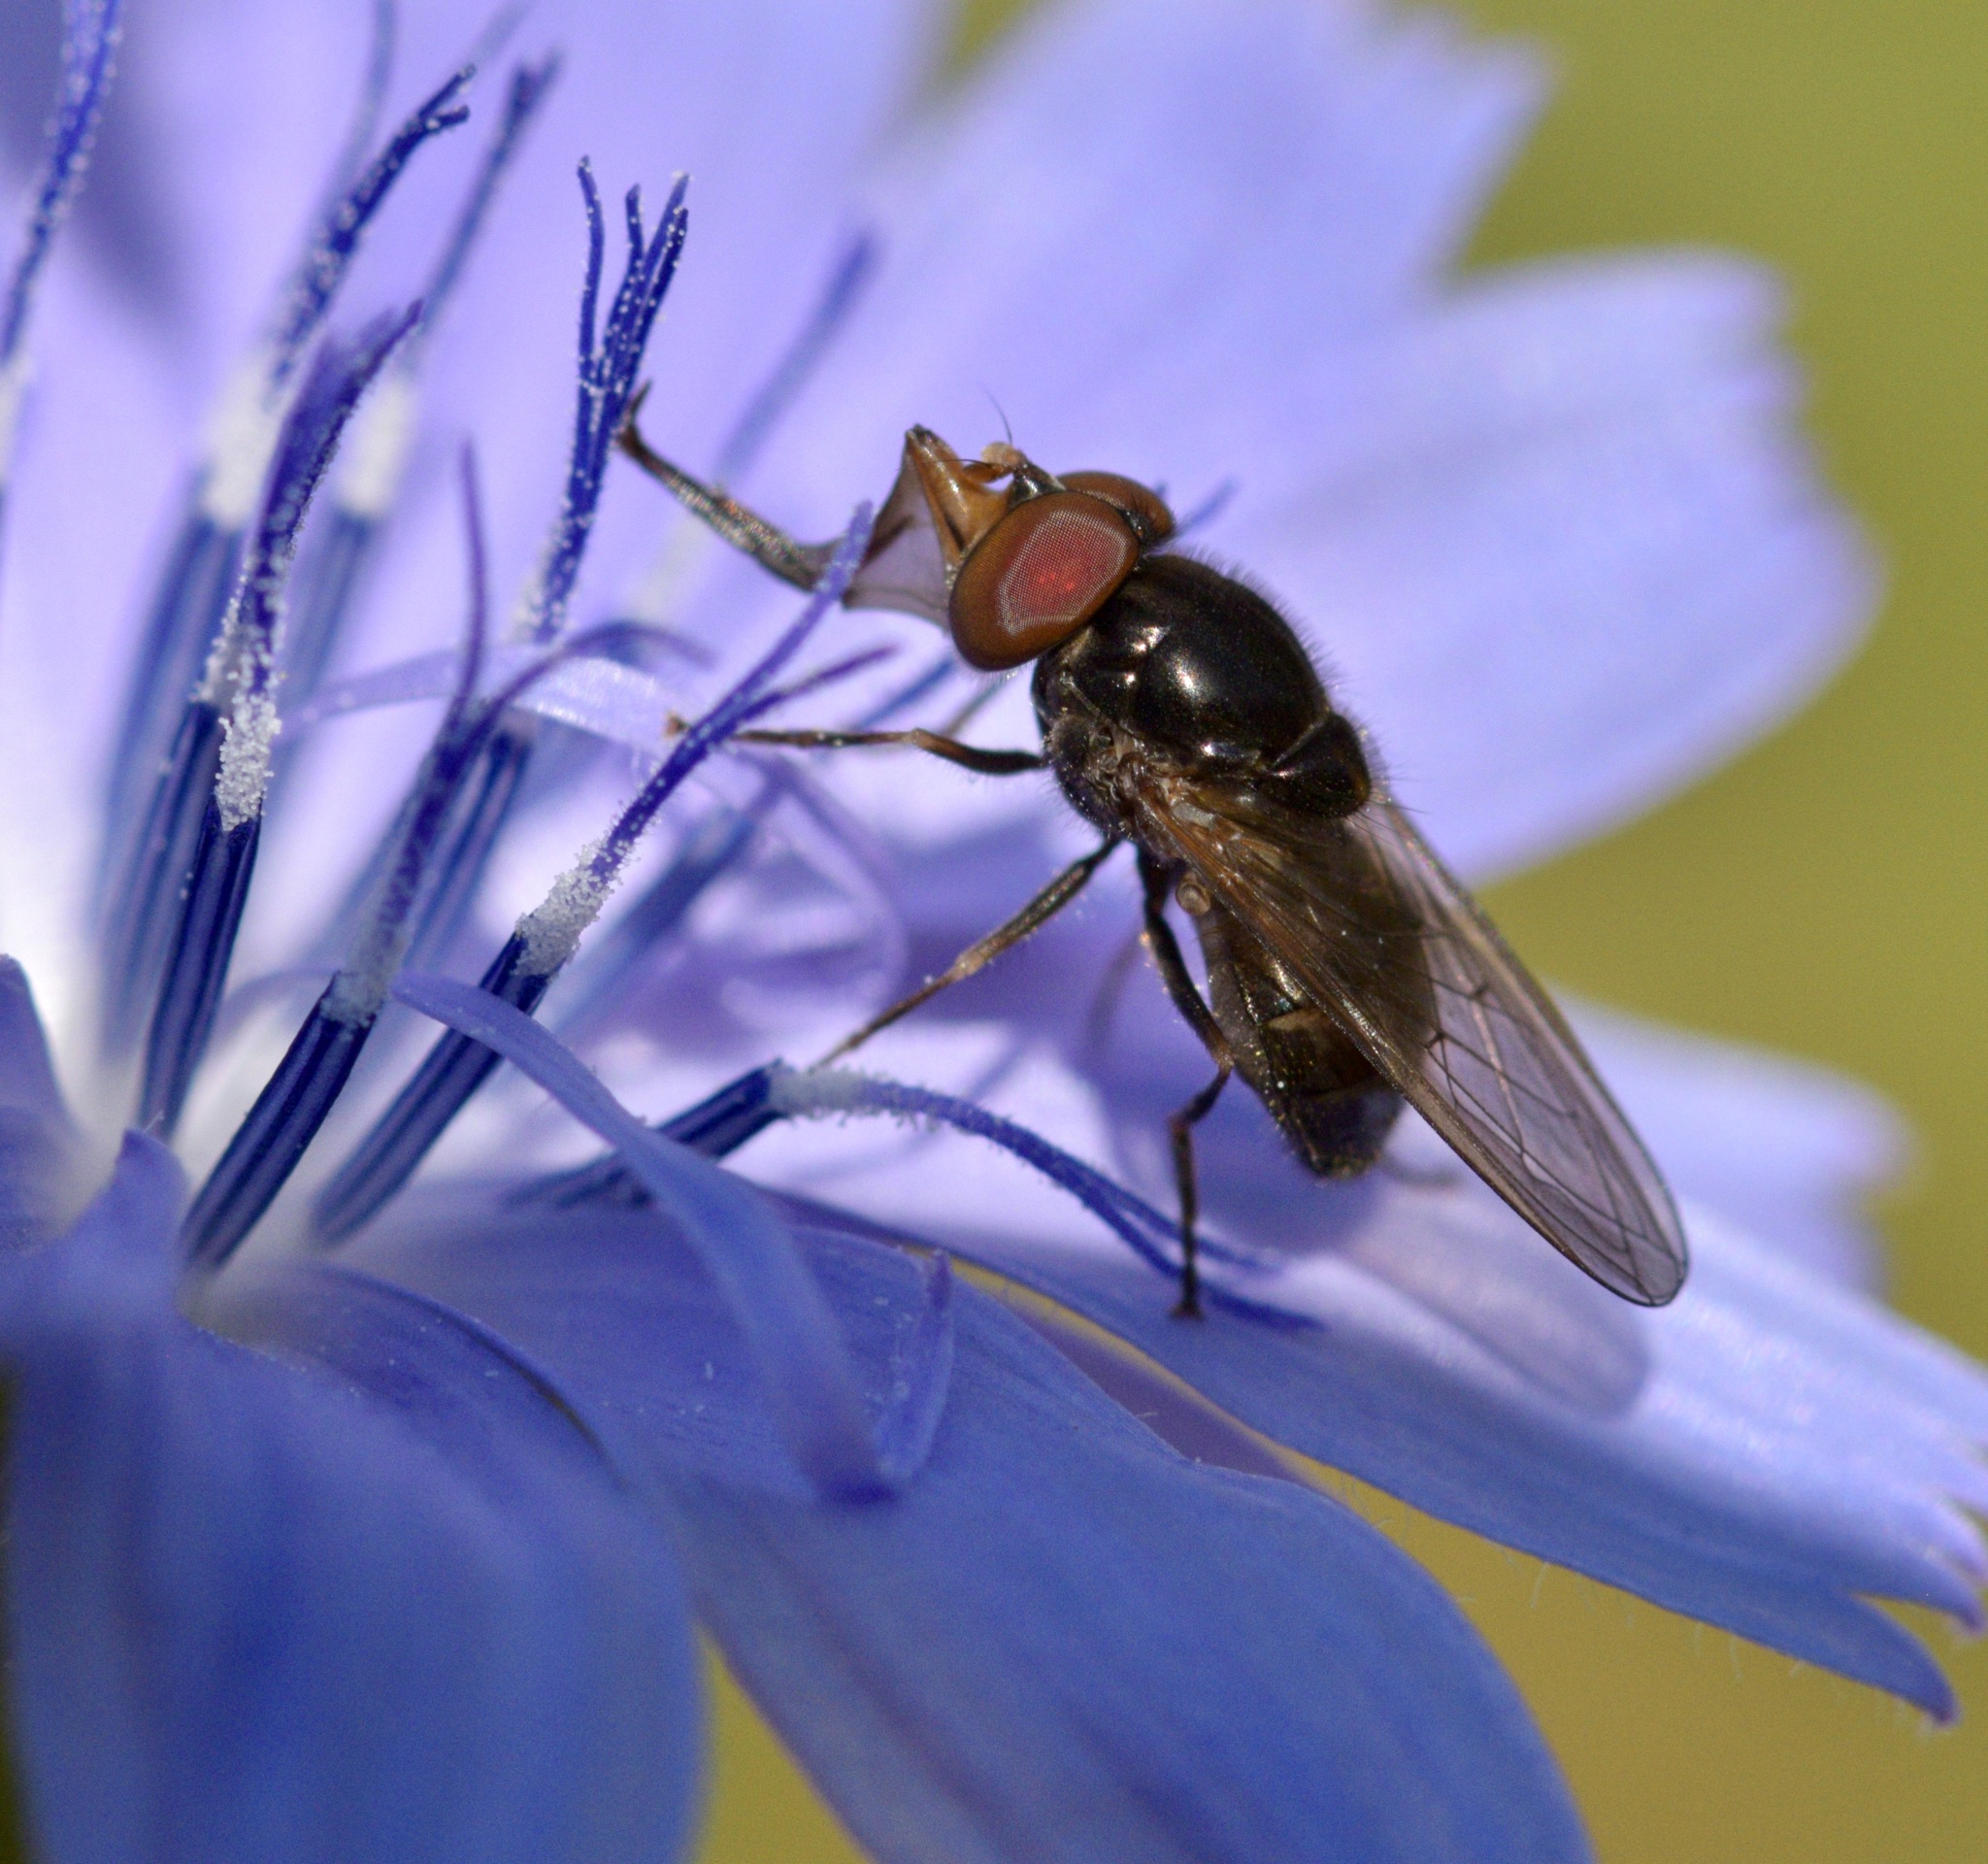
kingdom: Animalia
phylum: Arthropoda
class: Insecta
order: Diptera
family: Syrphidae
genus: Rhingia
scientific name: Rhingia nasica
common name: American snout fly
